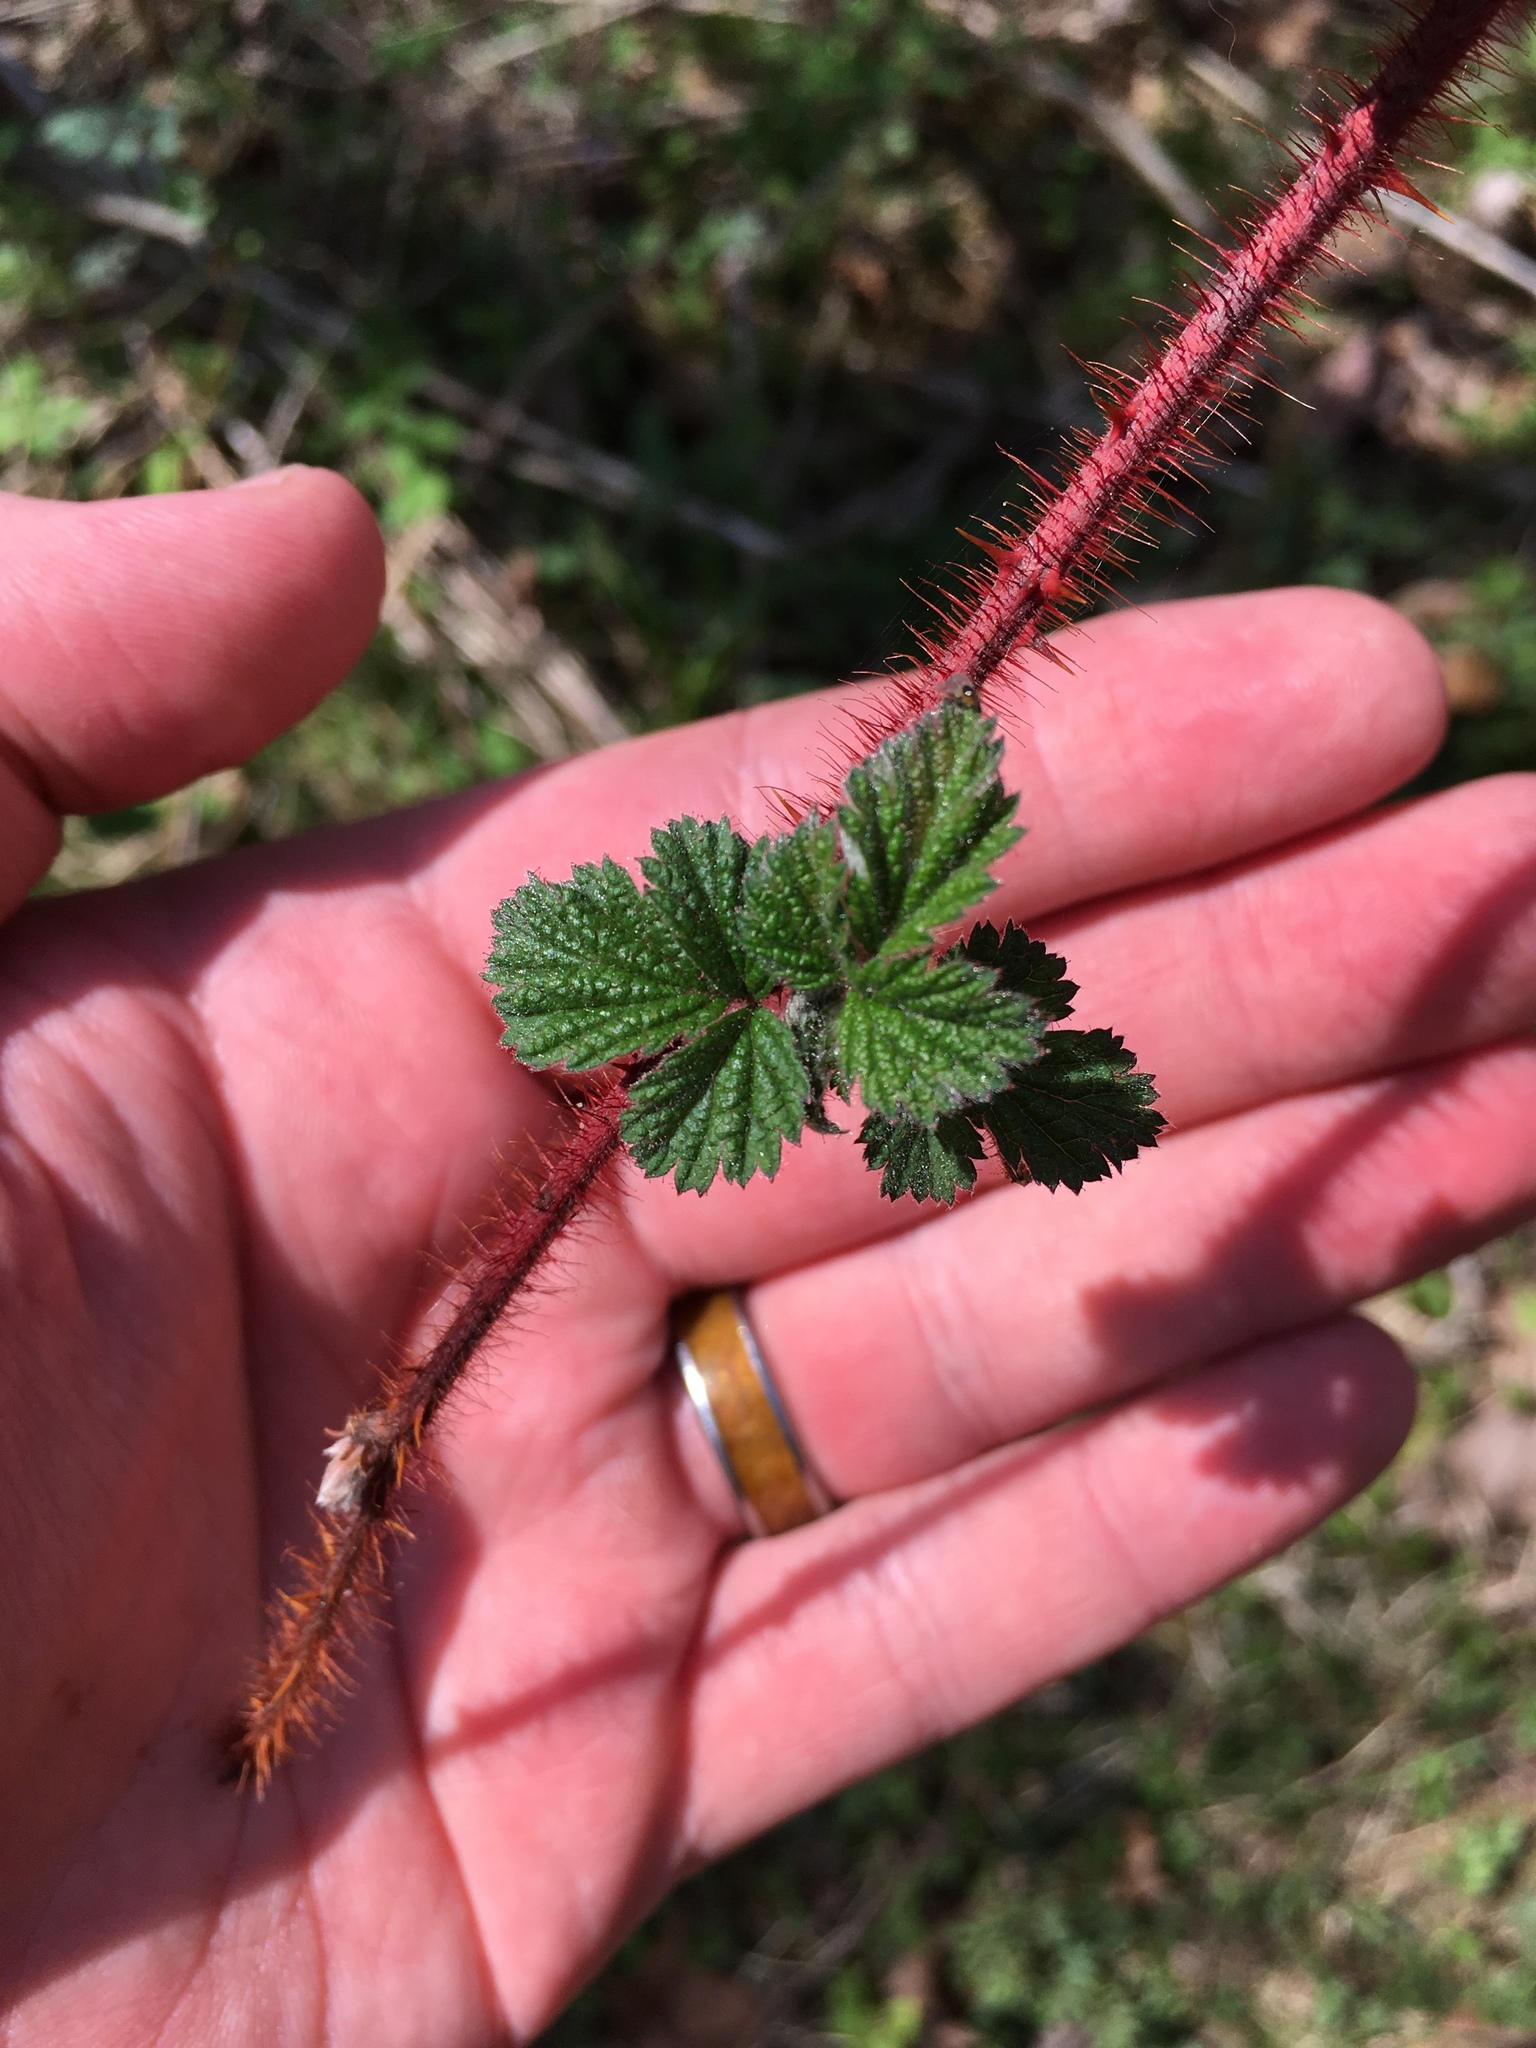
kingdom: Plantae
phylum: Tracheophyta
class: Magnoliopsida
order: Rosales
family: Rosaceae
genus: Rubus
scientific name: Rubus phoenicolasius
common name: Japanese wineberry
